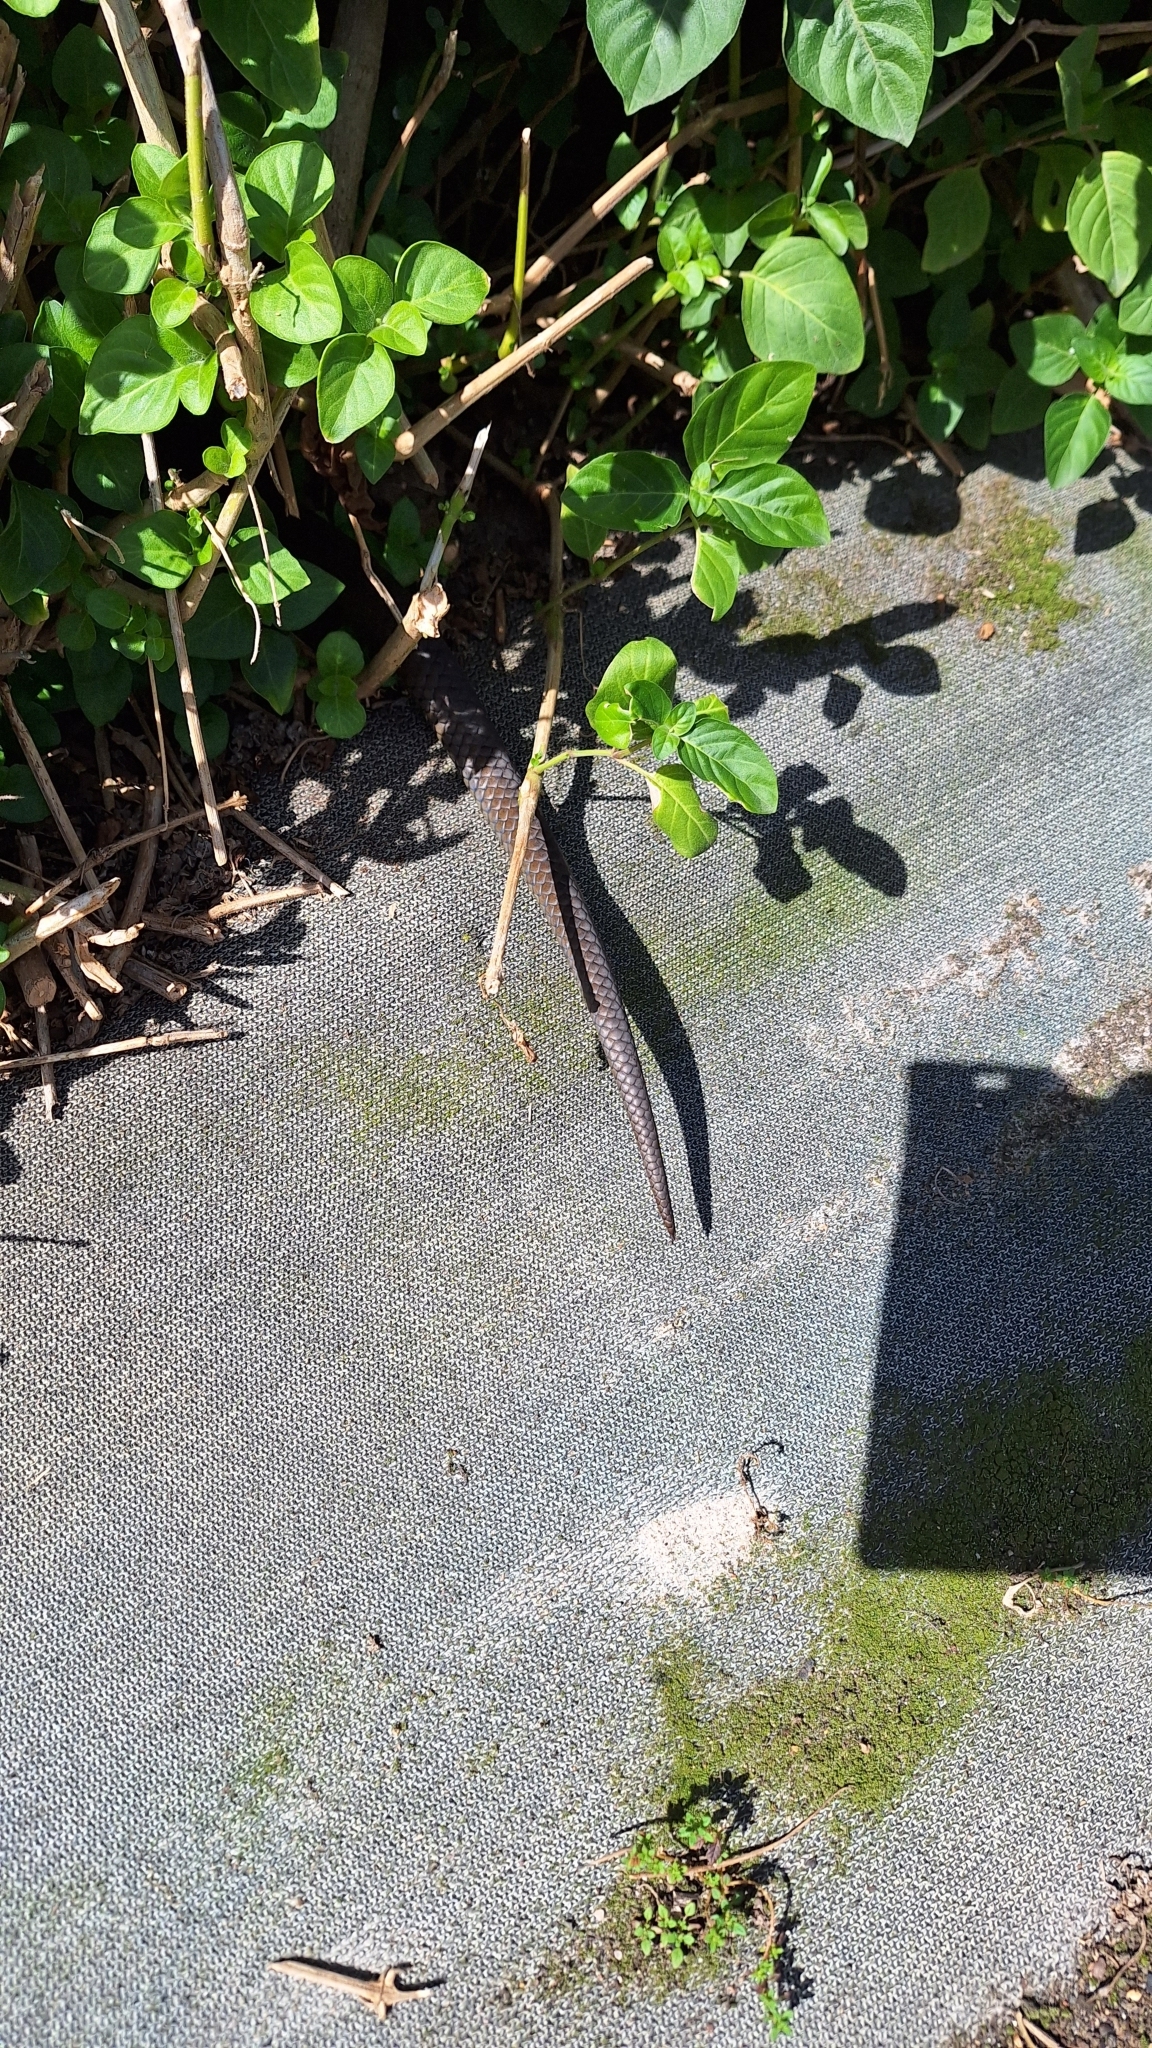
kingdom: Animalia
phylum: Chordata
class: Squamata
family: Pseudaspididae
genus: Pseudaspis
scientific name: Pseudaspis cana
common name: Mole snake
